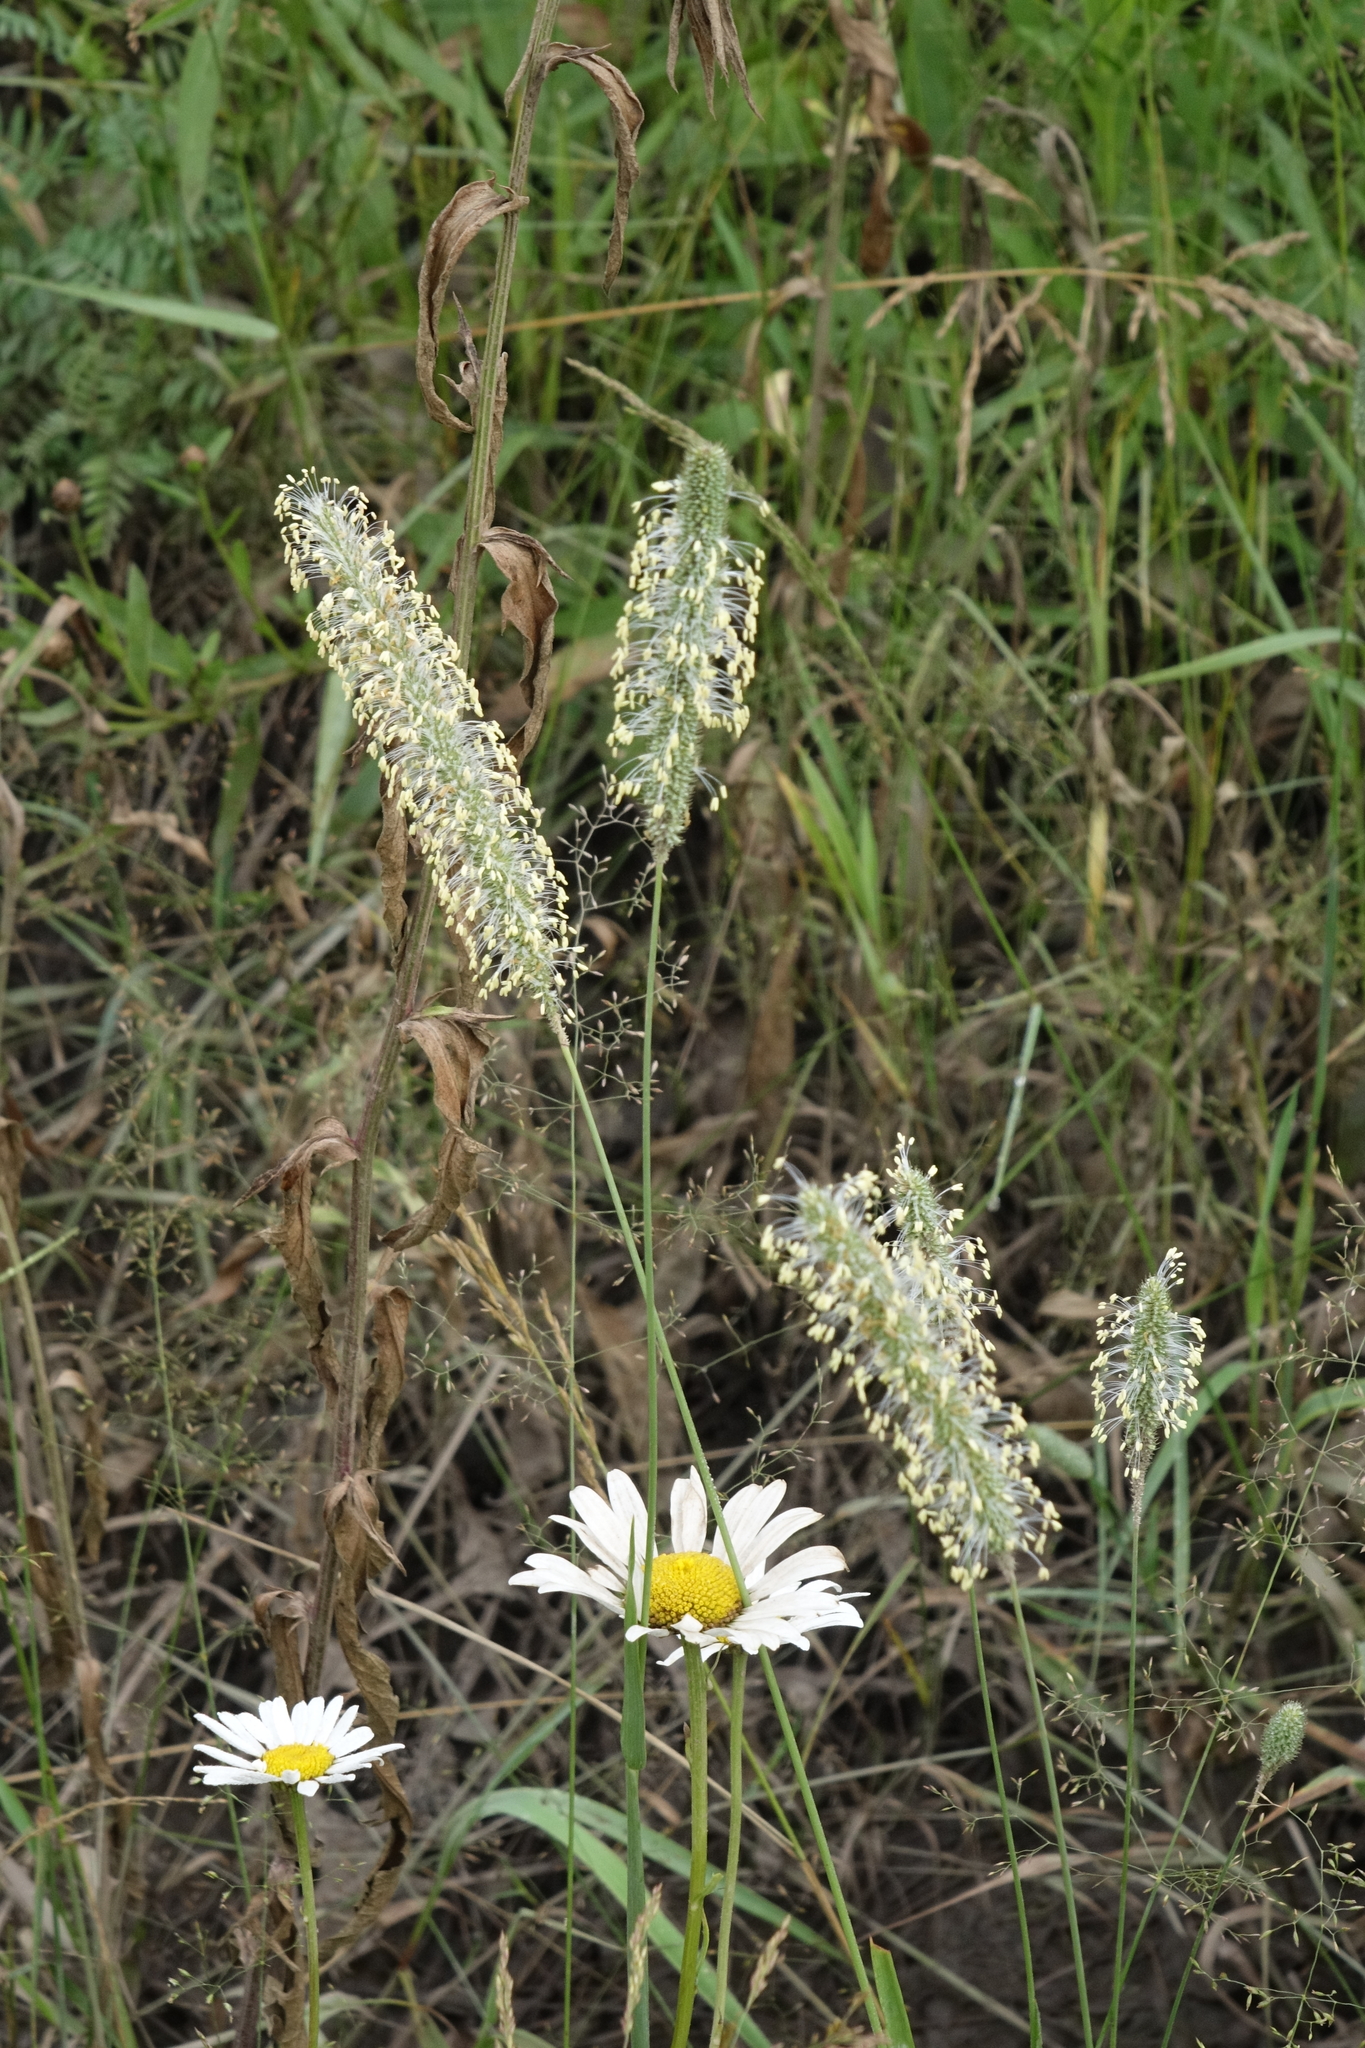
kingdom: Plantae
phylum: Tracheophyta
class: Liliopsida
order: Poales
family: Poaceae
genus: Phleum
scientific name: Phleum pratense
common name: Timothy grass
